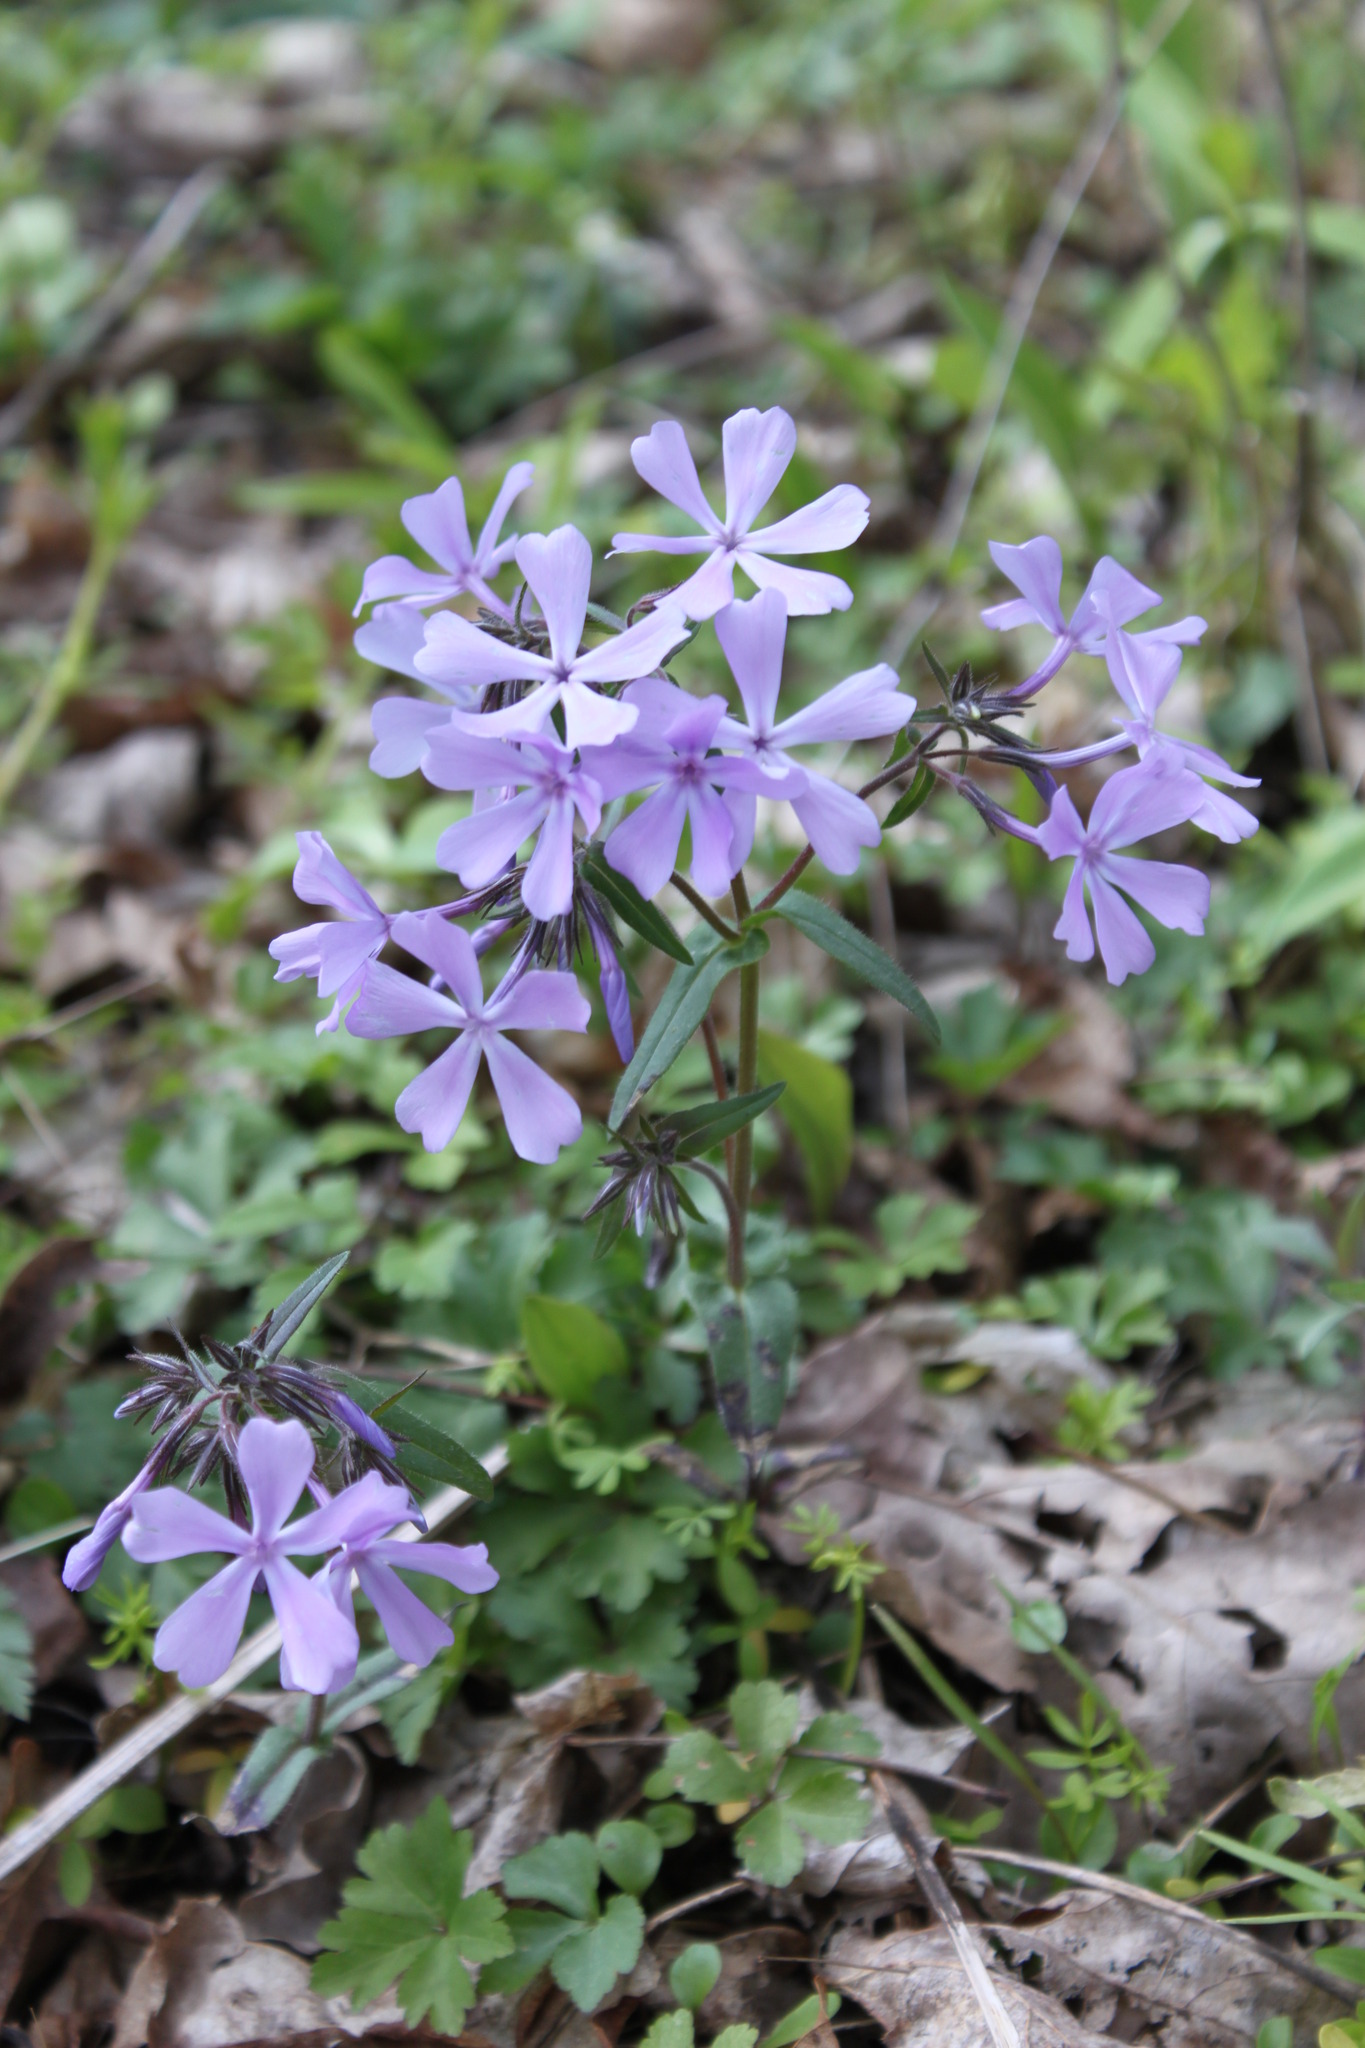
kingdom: Plantae
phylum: Tracheophyta
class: Magnoliopsida
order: Ericales
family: Polemoniaceae
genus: Phlox
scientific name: Phlox divaricata
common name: Blue phlox
